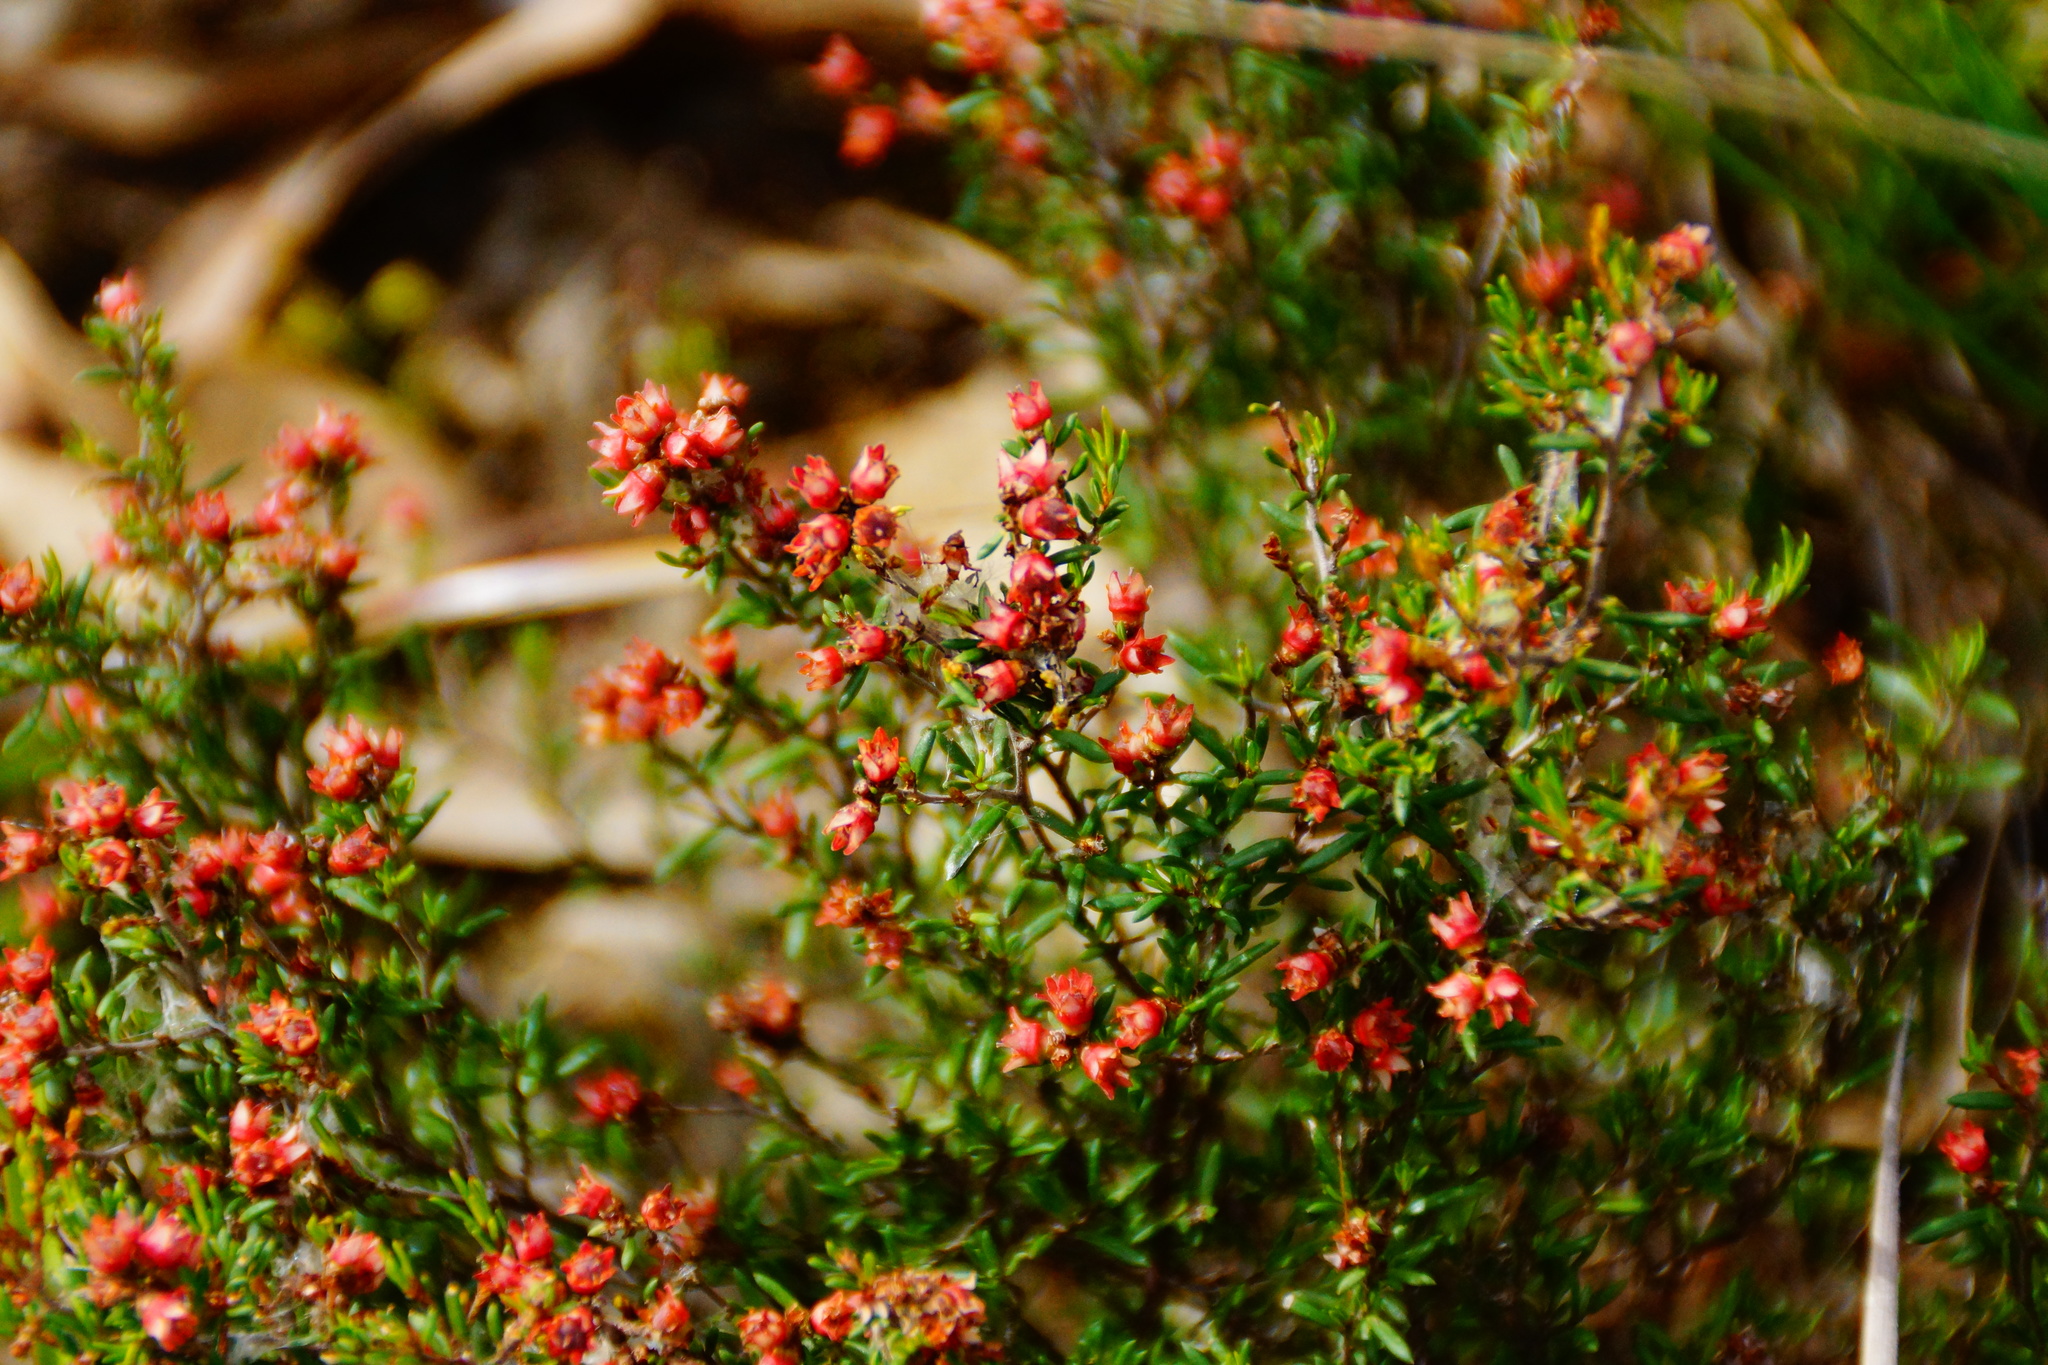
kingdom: Plantae
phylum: Tracheophyta
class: Magnoliopsida
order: Rosales
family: Rhamnaceae
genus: Cryptandra
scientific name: Cryptandra tomentosa
